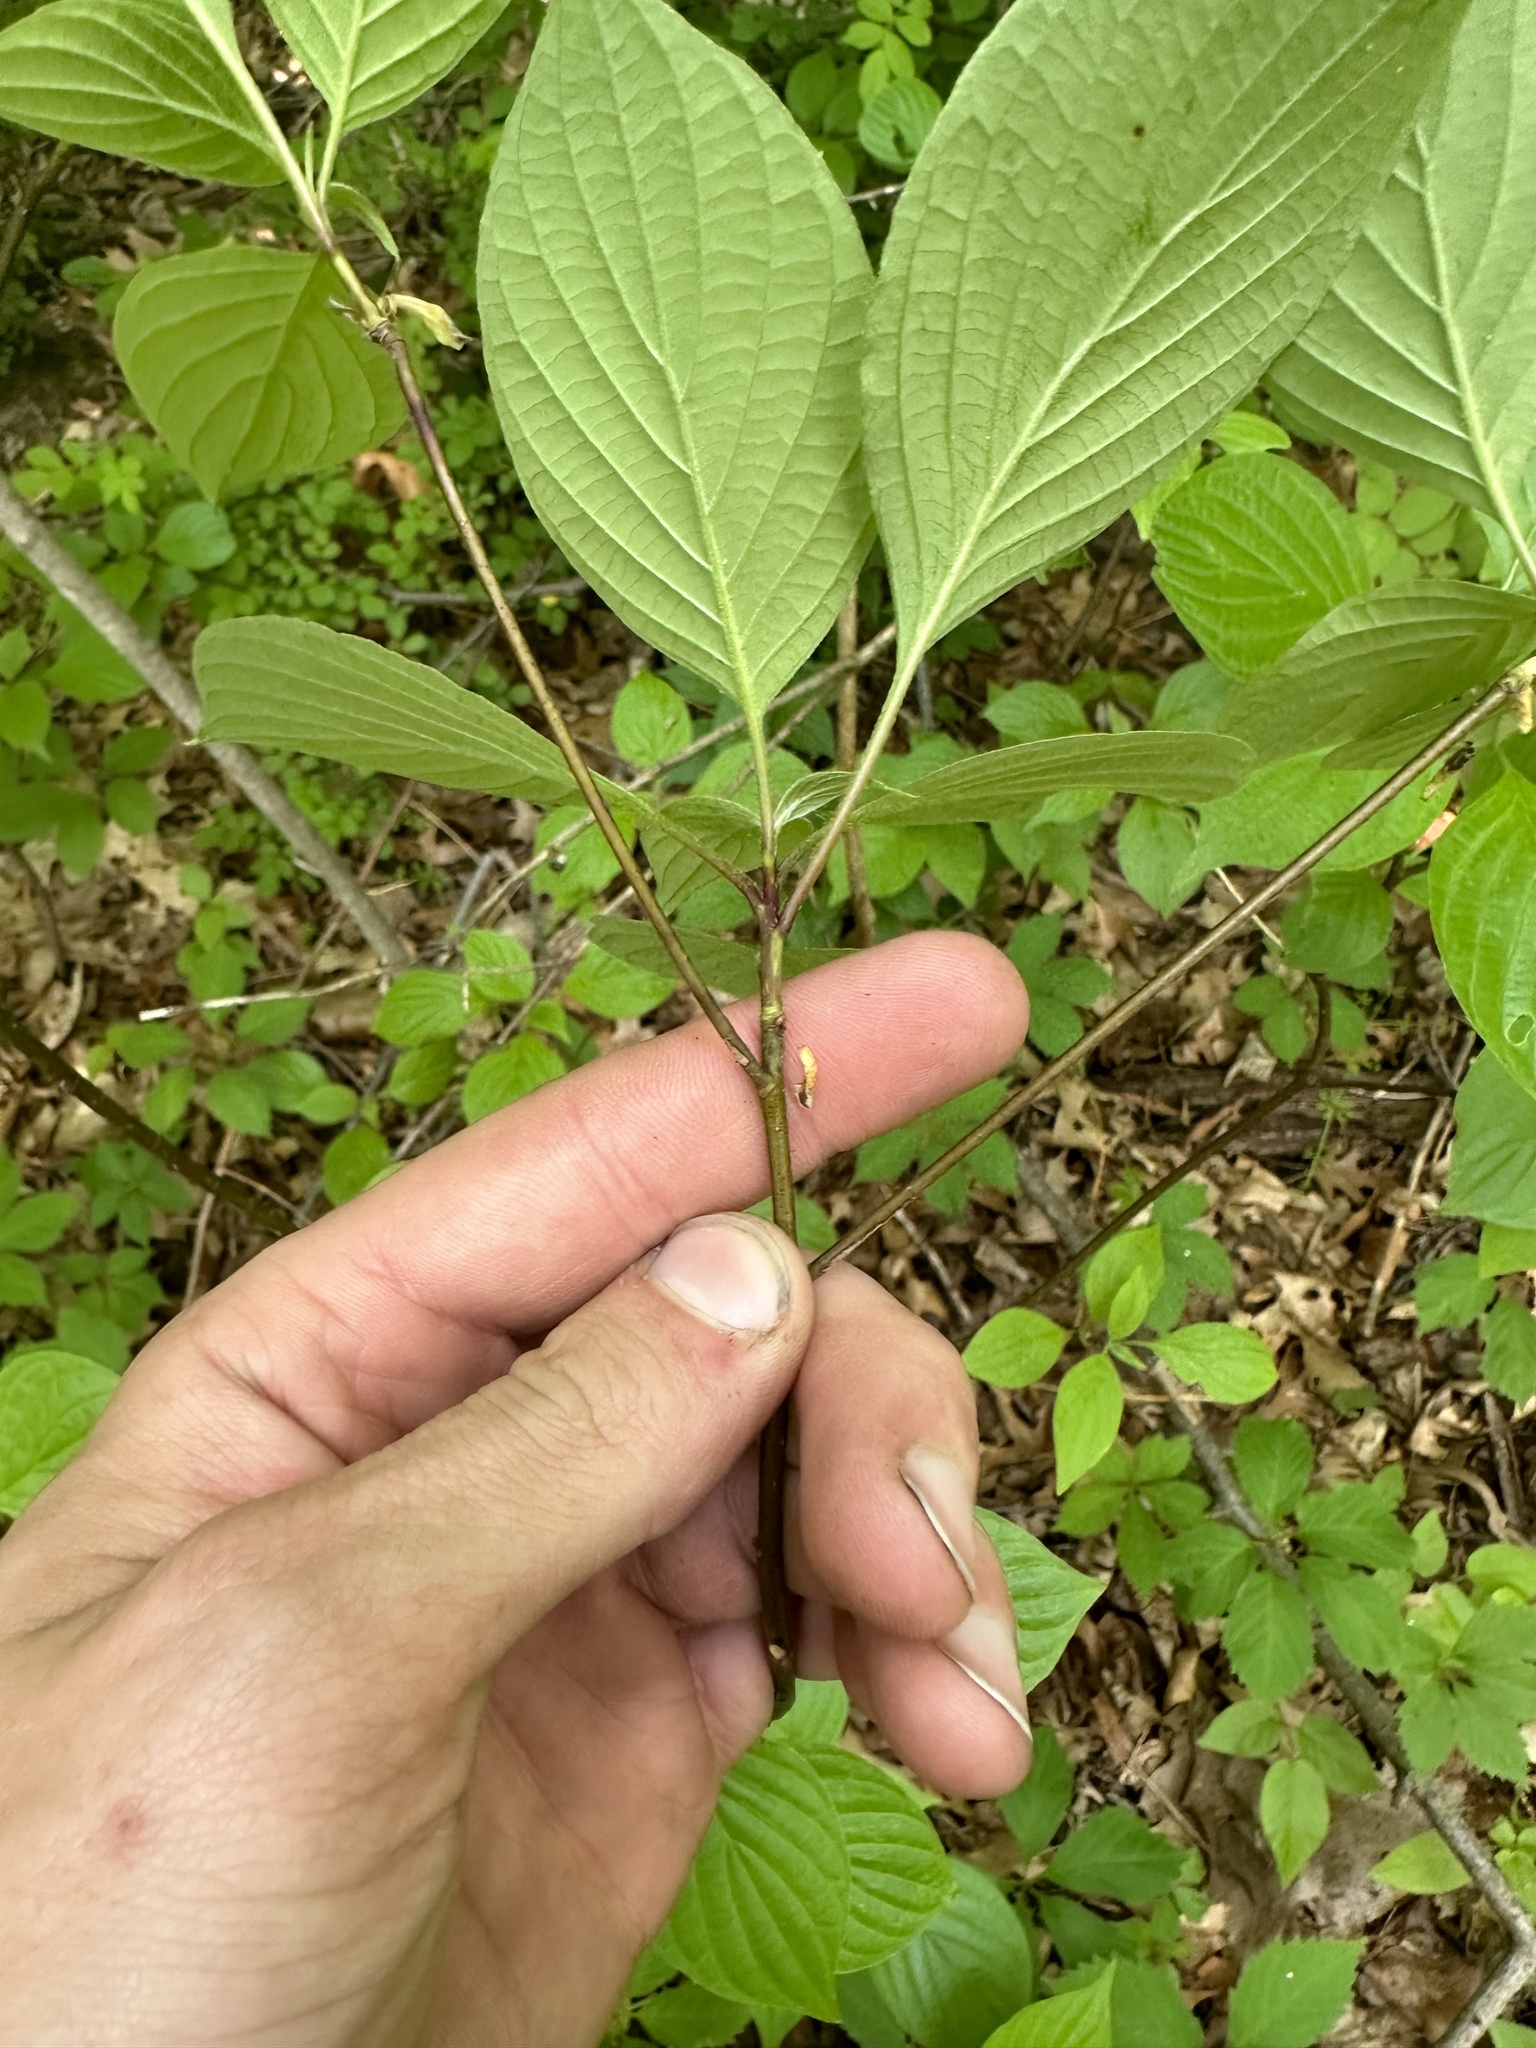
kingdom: Plantae
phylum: Tracheophyta
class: Magnoliopsida
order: Cornales
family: Cornaceae
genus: Cornus
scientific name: Cornus alternifolia
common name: Pagoda dogwood
